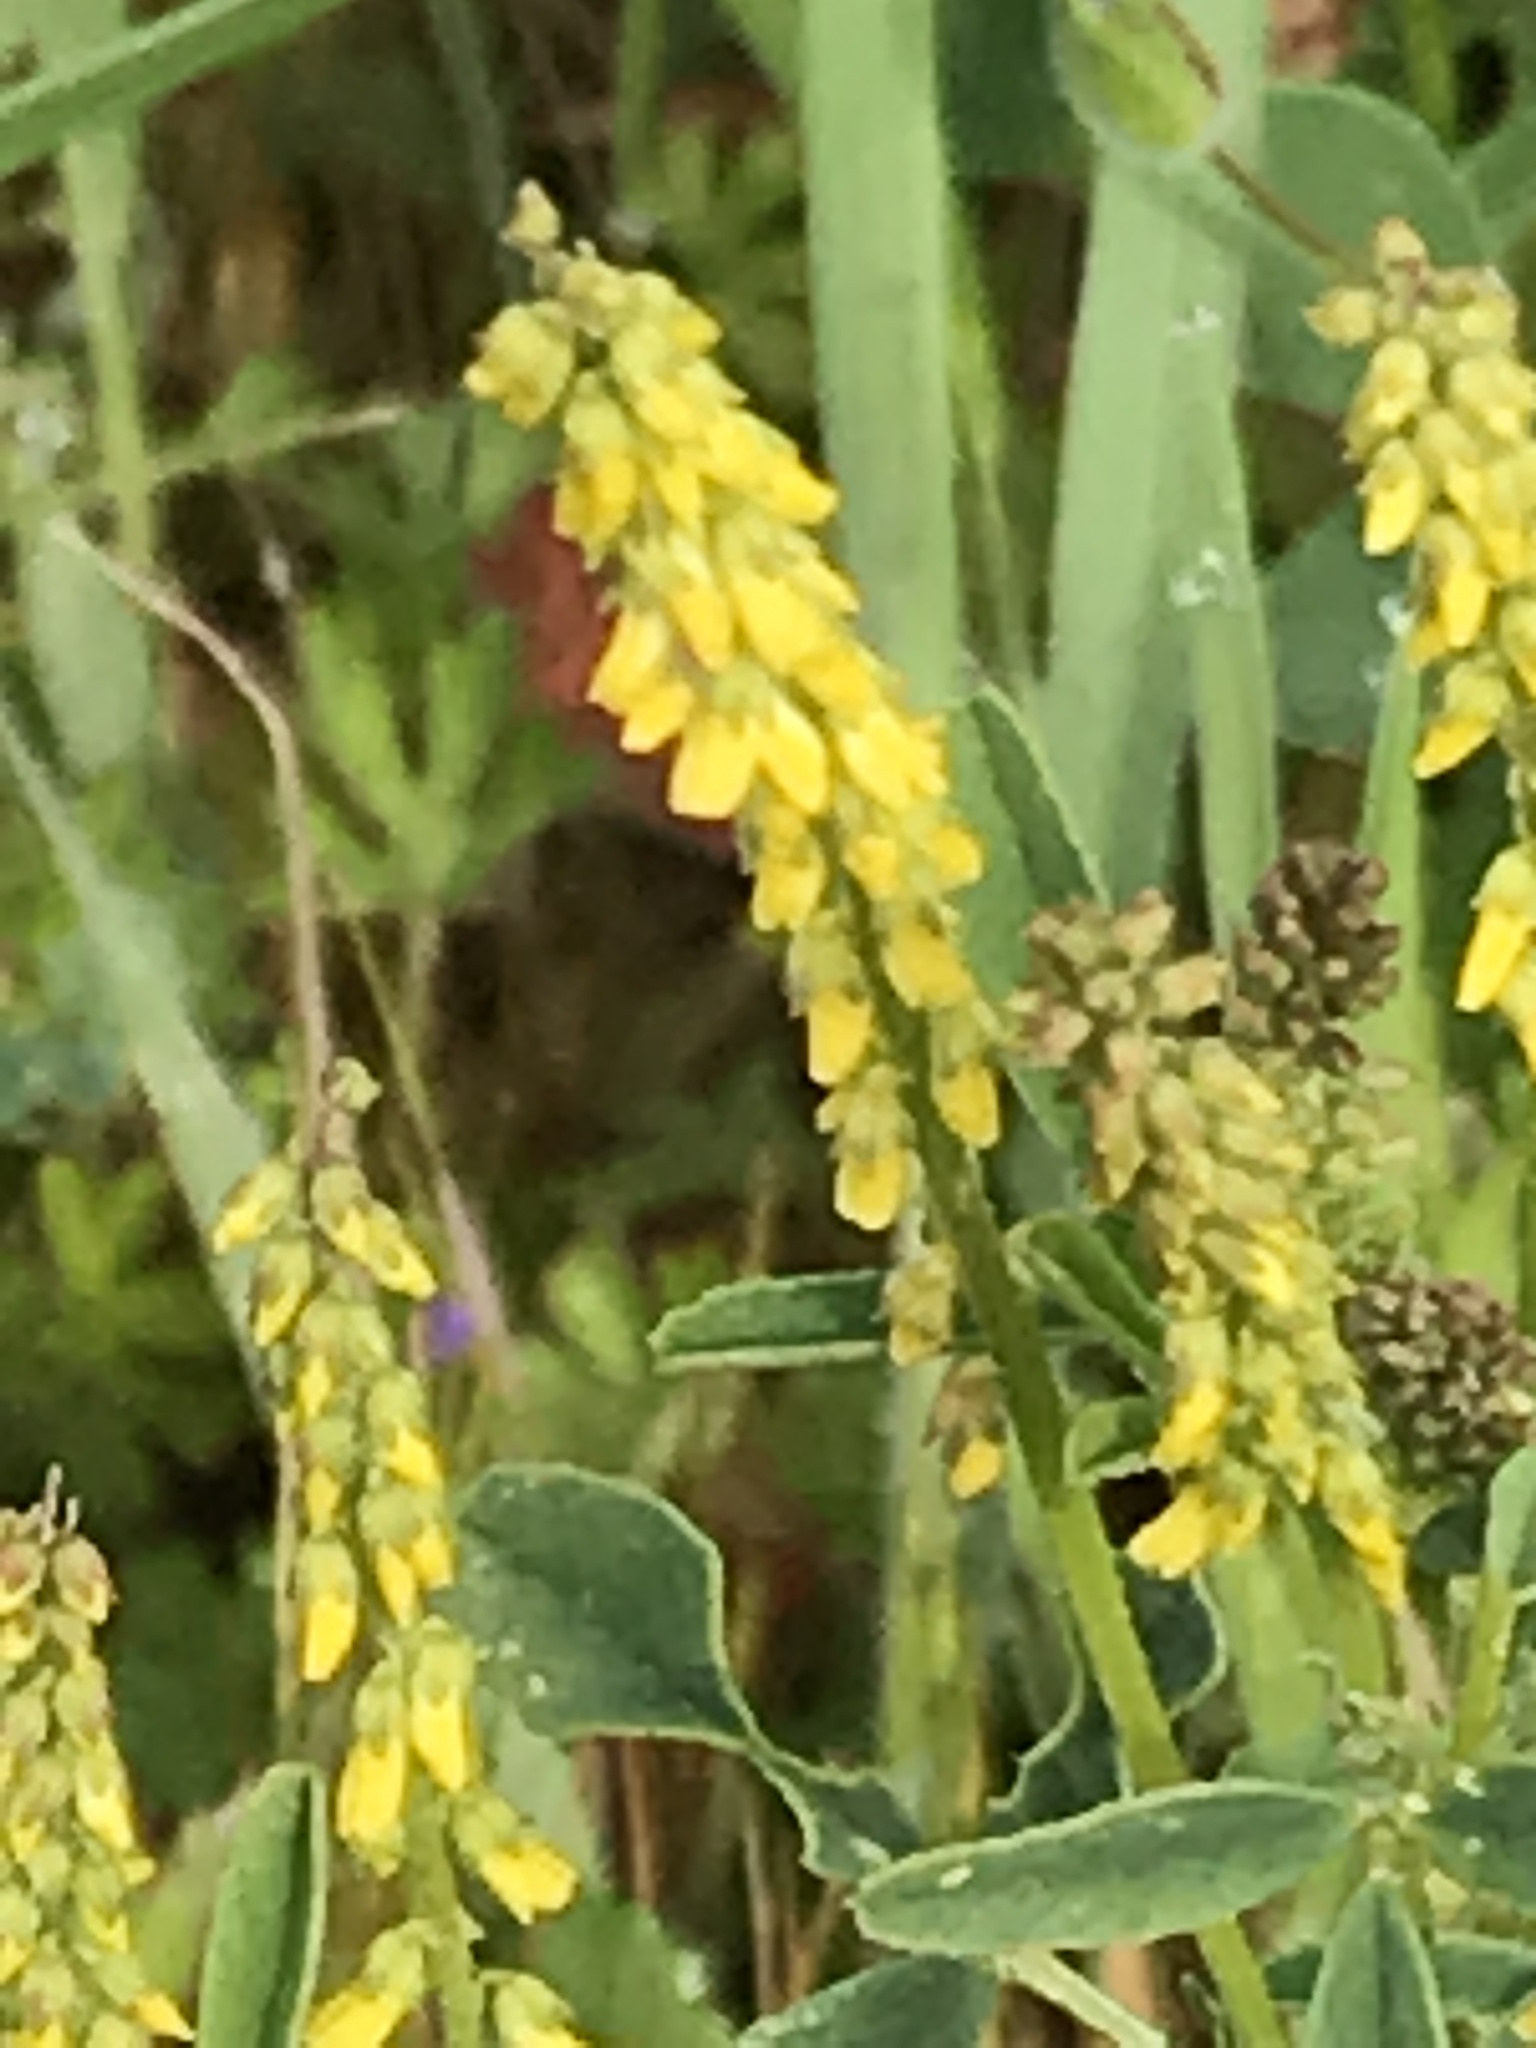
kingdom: Plantae
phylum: Tracheophyta
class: Magnoliopsida
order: Fabales
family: Fabaceae
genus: Melilotus
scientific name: Melilotus indicus
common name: Small melilot
